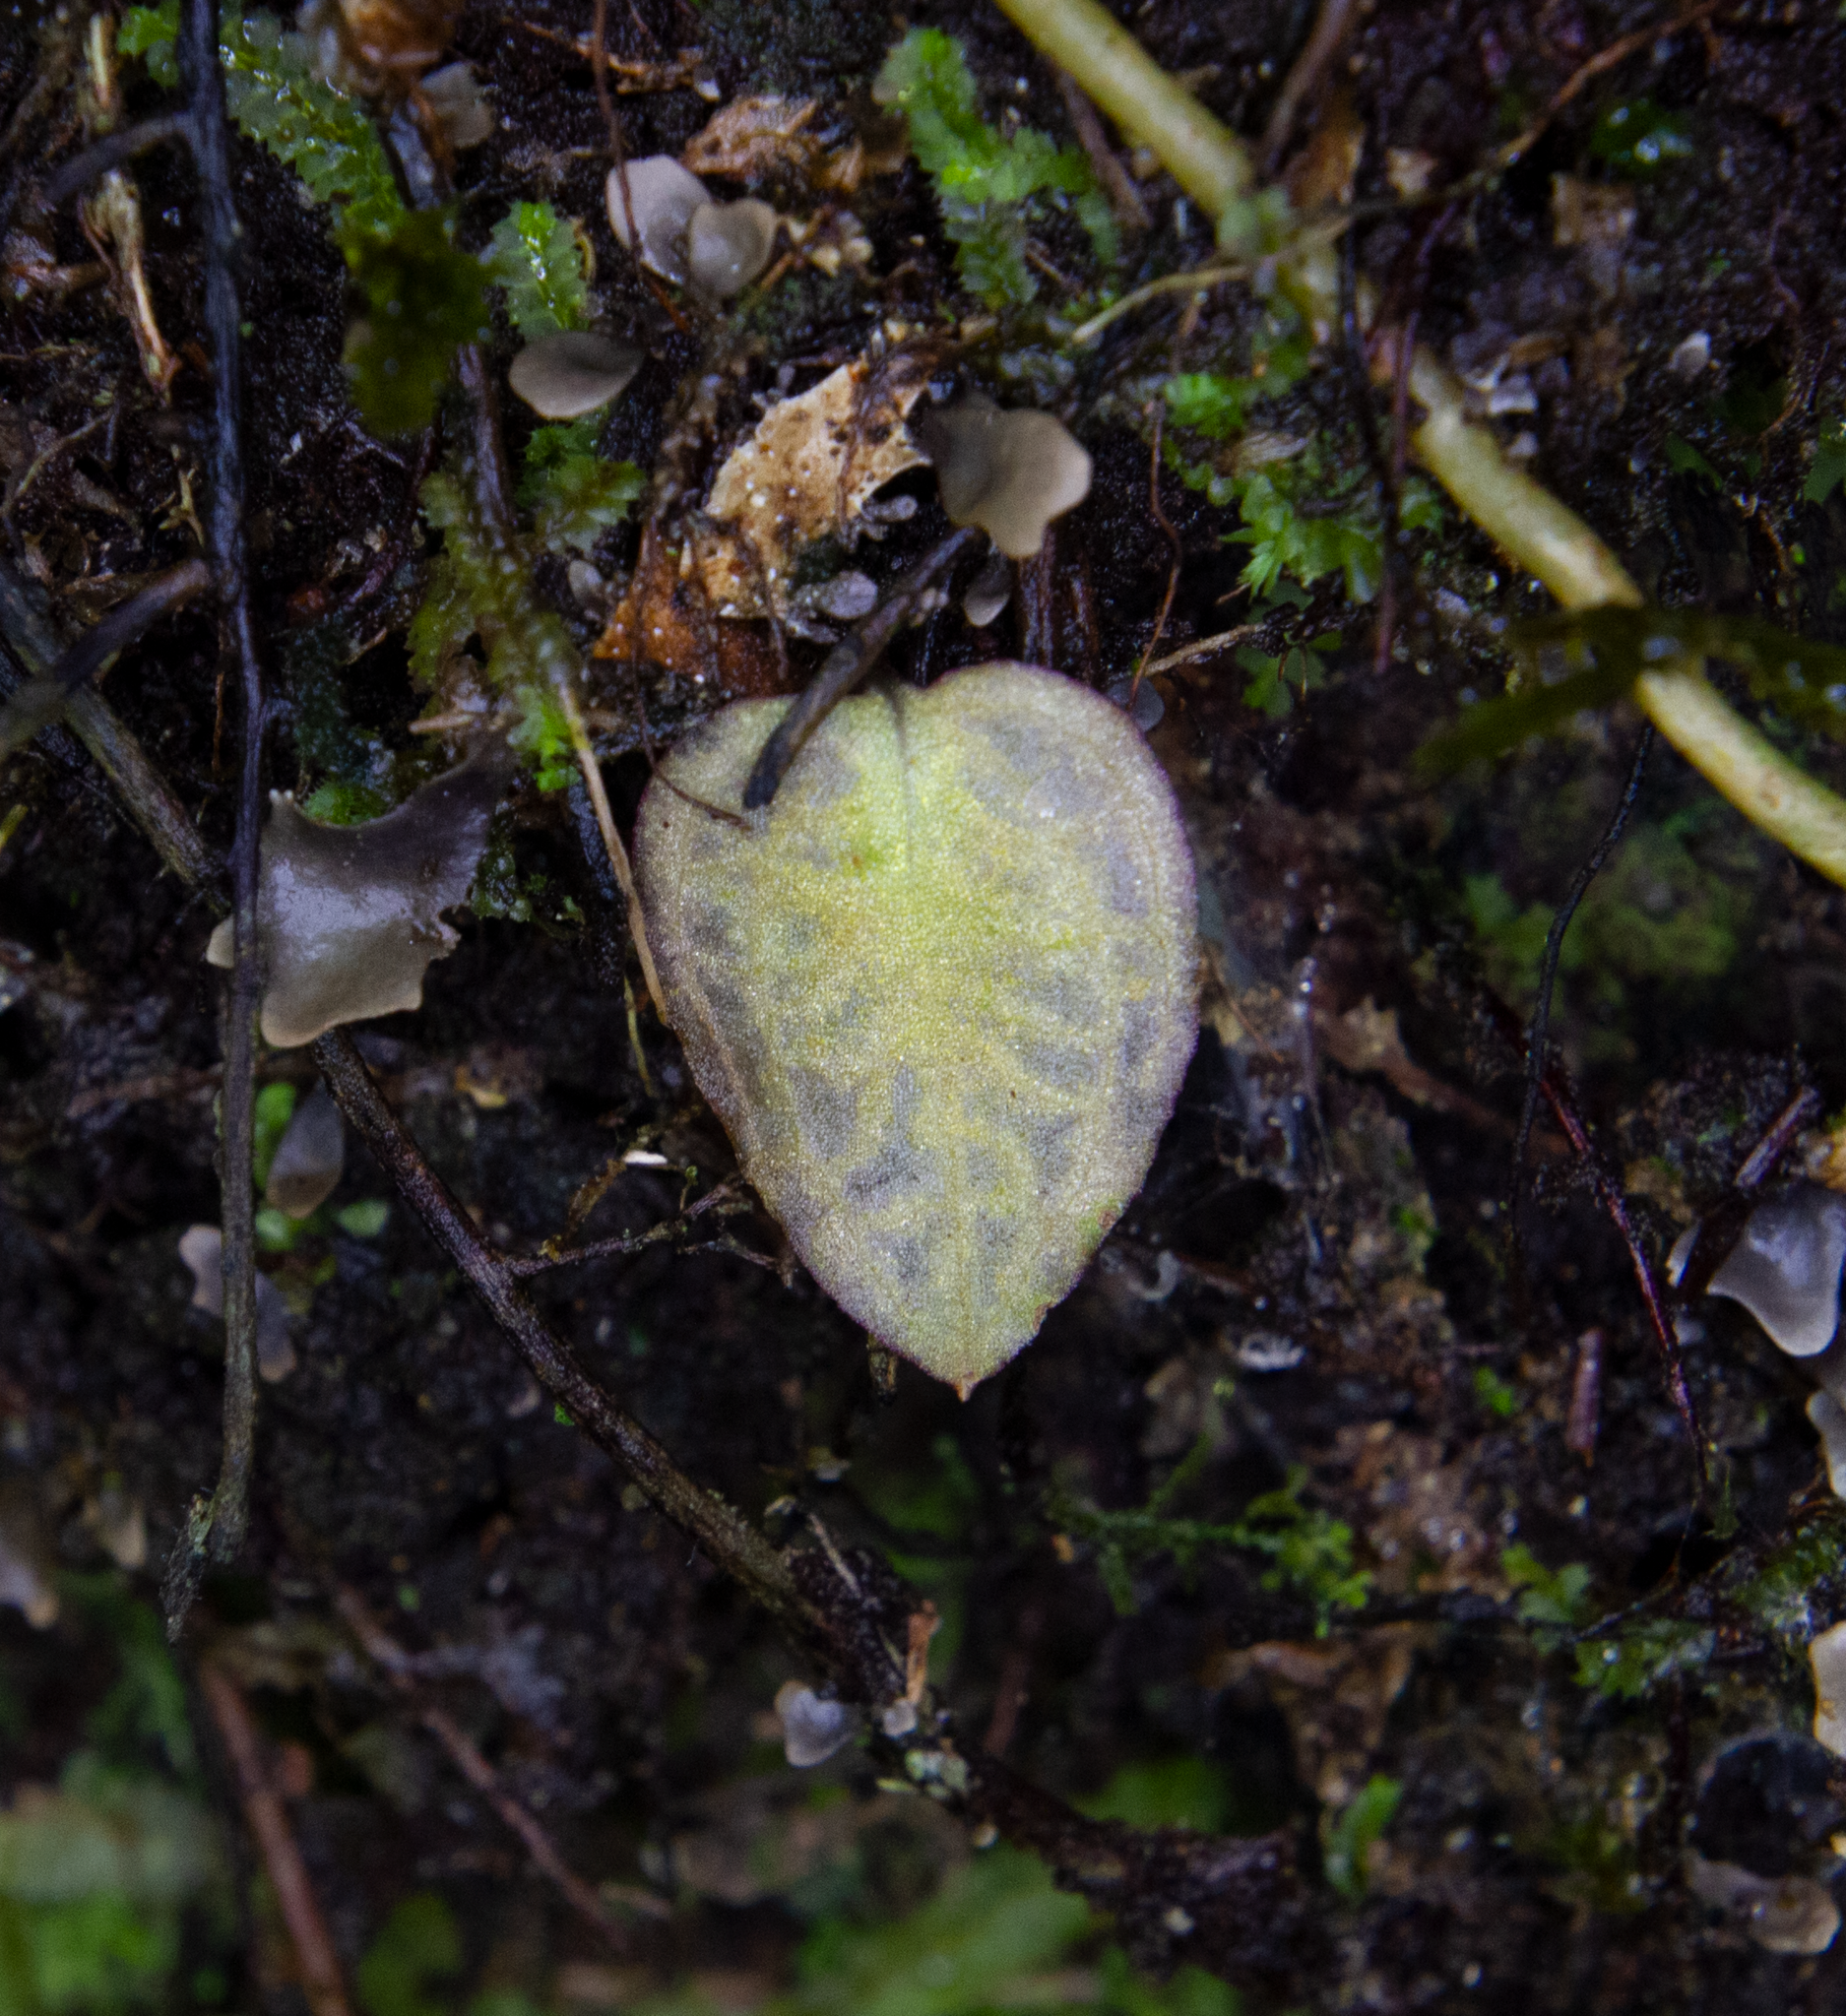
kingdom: Plantae
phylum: Tracheophyta
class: Liliopsida
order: Asparagales
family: Orchidaceae
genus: Corybas
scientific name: Corybas oblongus
